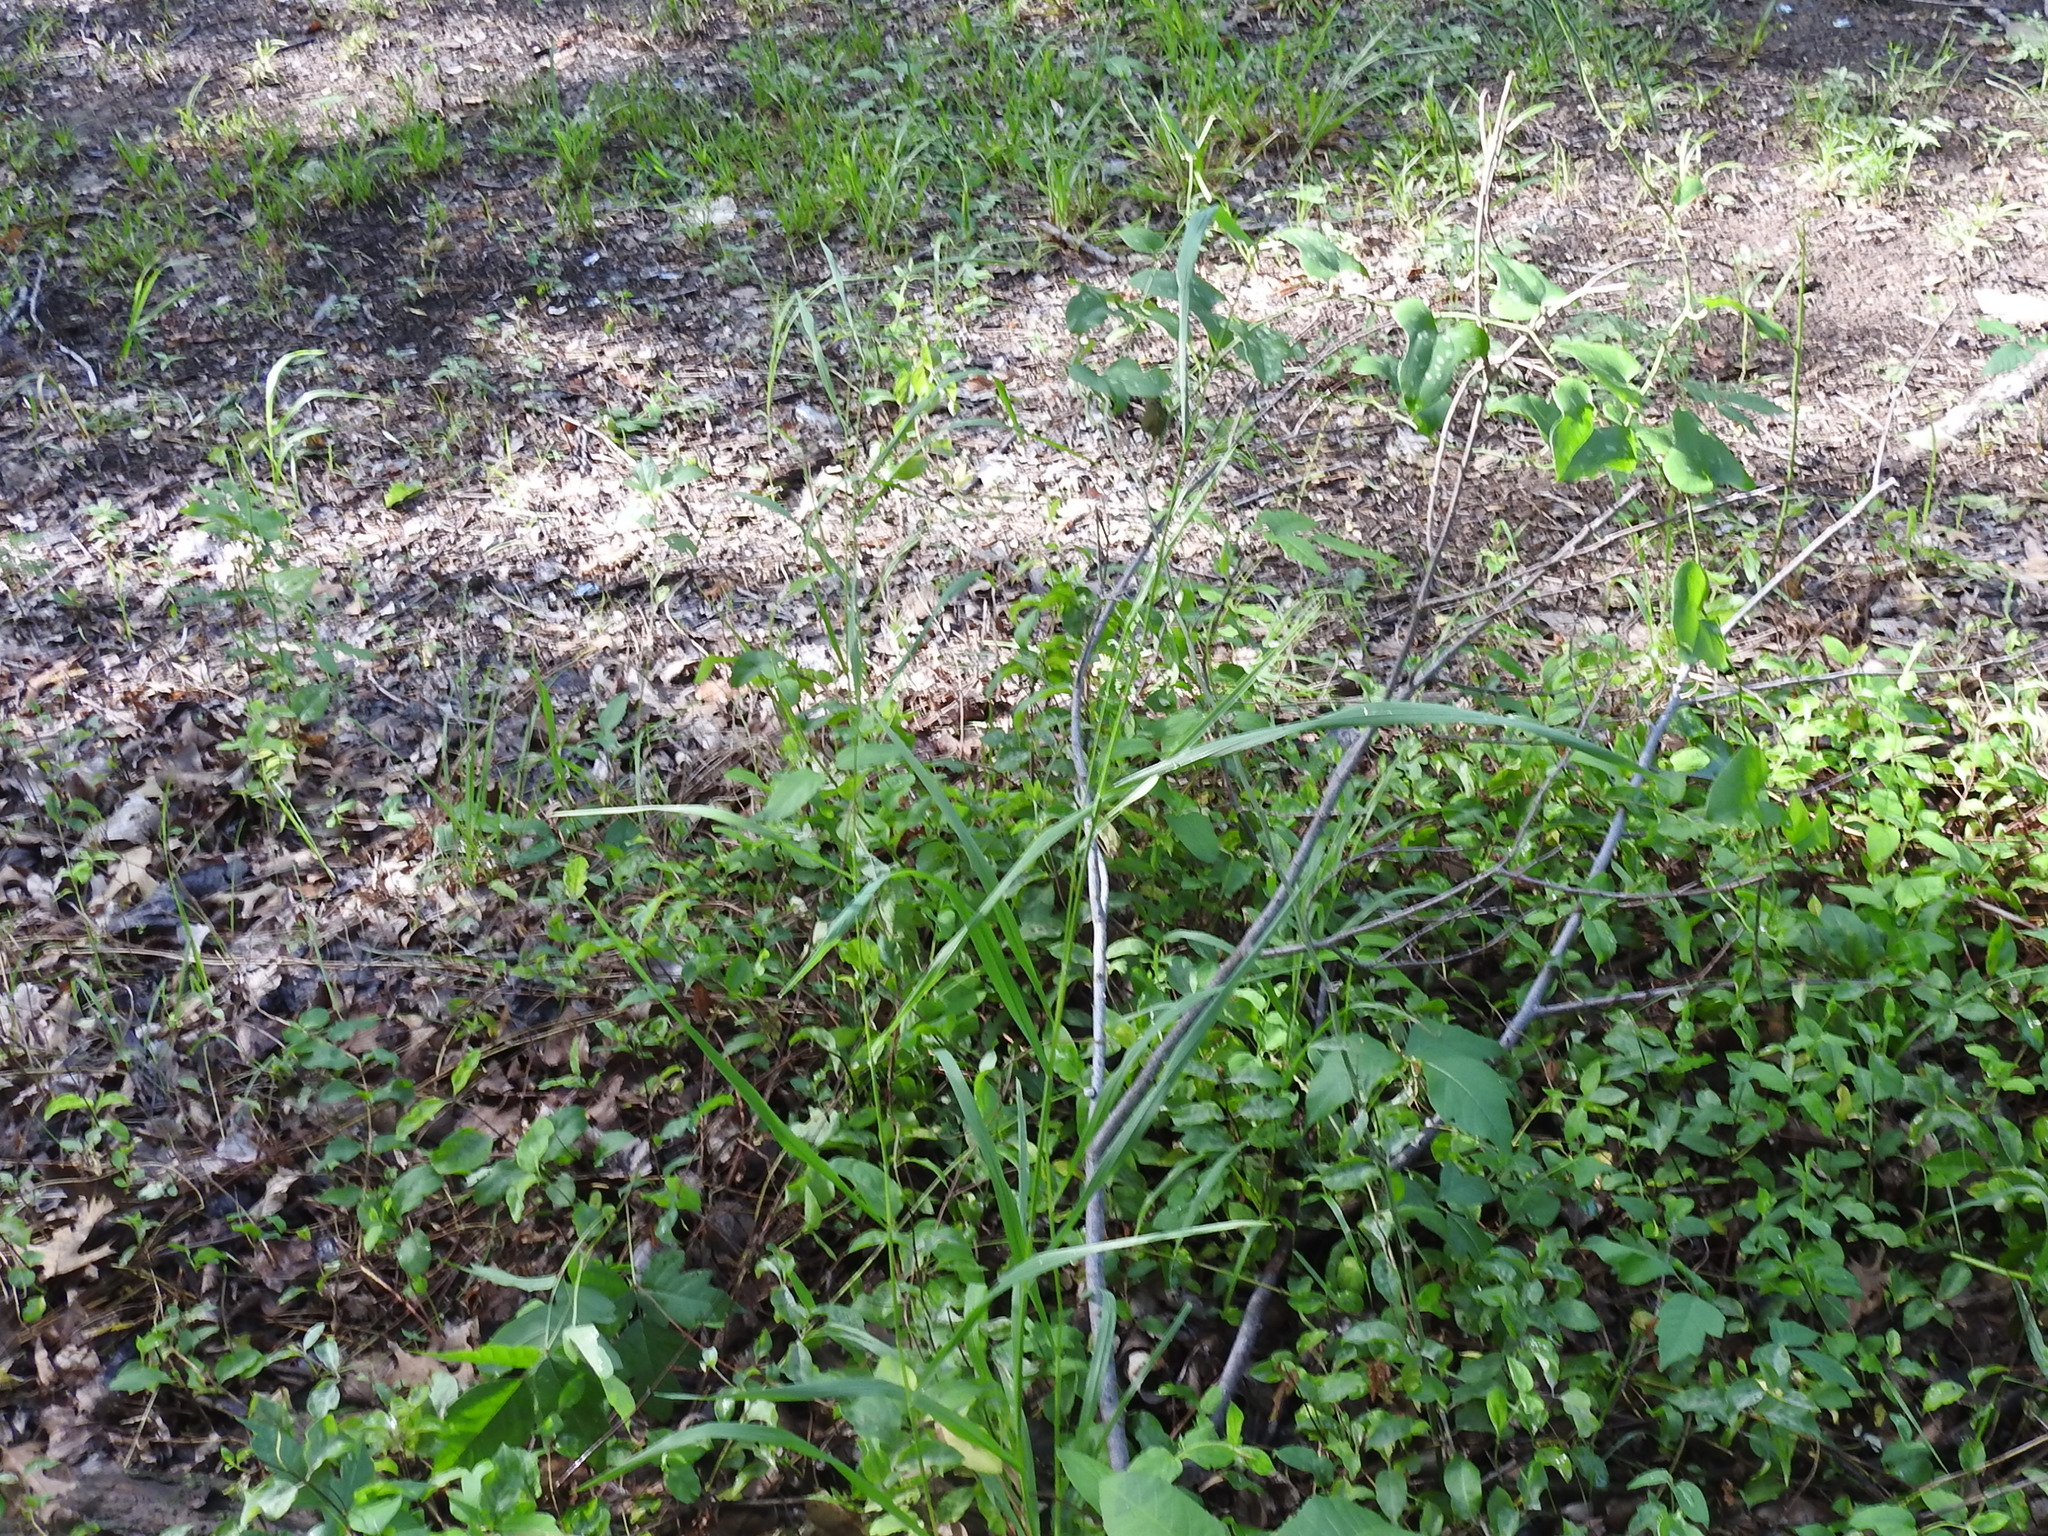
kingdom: Plantae
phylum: Tracheophyta
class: Liliopsida
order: Poales
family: Poaceae
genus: Bromus
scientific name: Bromus pubescens
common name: Hairy wood brome grass
